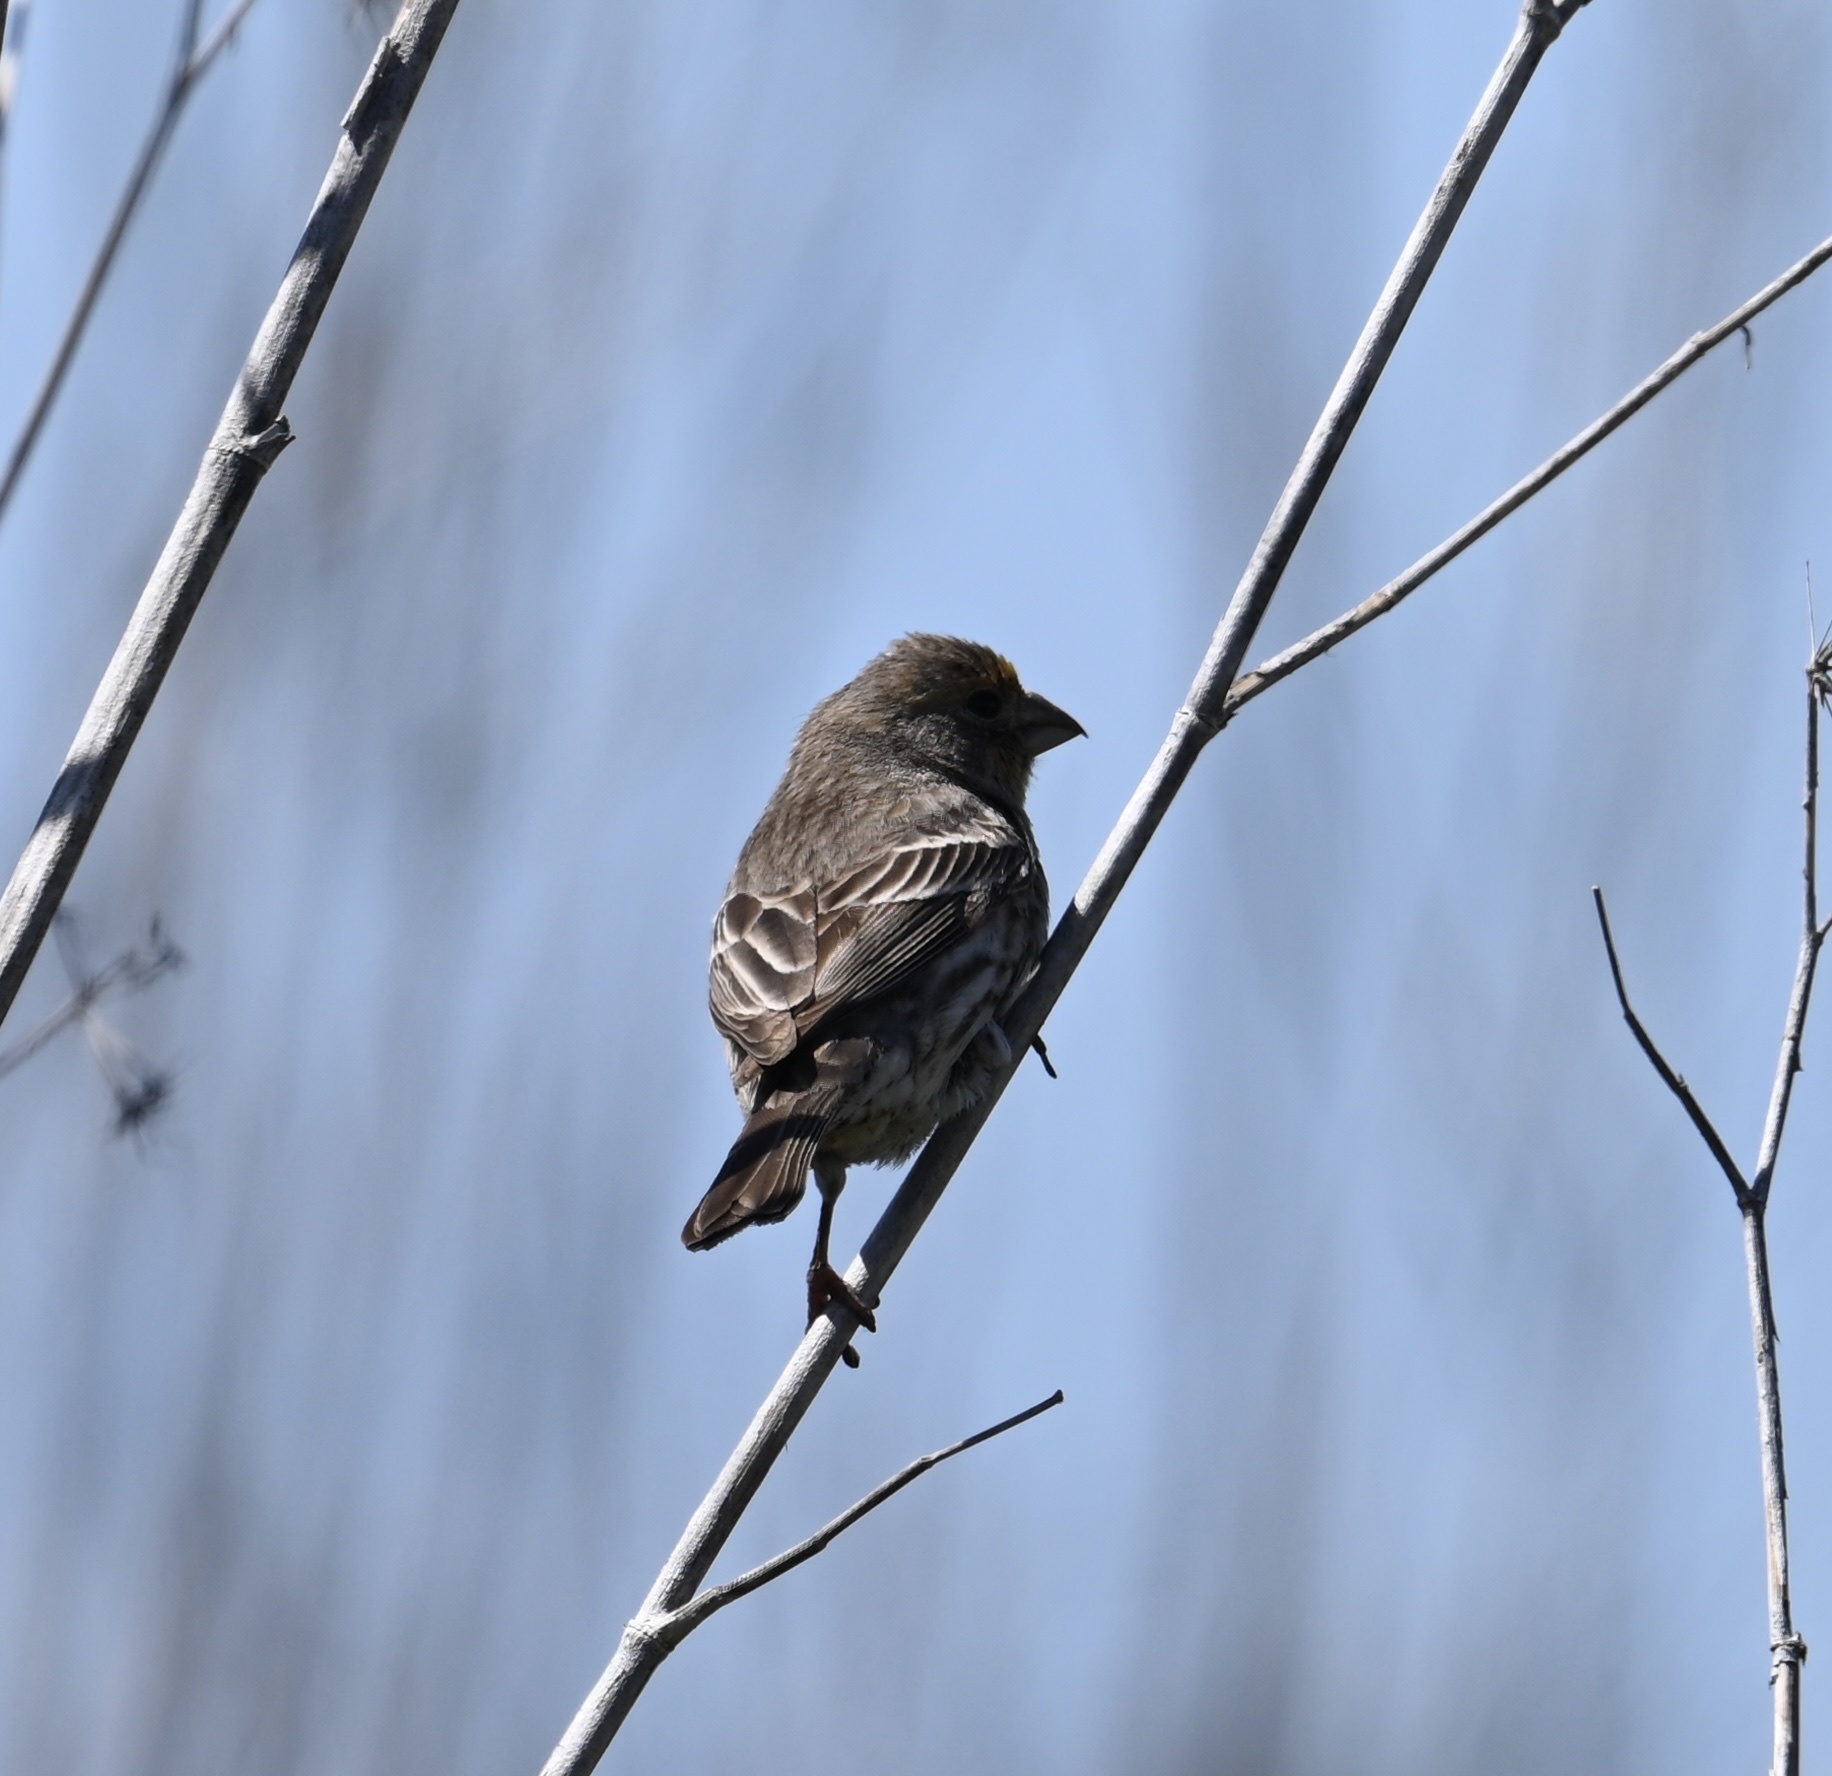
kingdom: Animalia
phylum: Chordata
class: Aves
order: Passeriformes
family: Fringillidae
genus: Haemorhous
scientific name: Haemorhous mexicanus
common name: House finch
